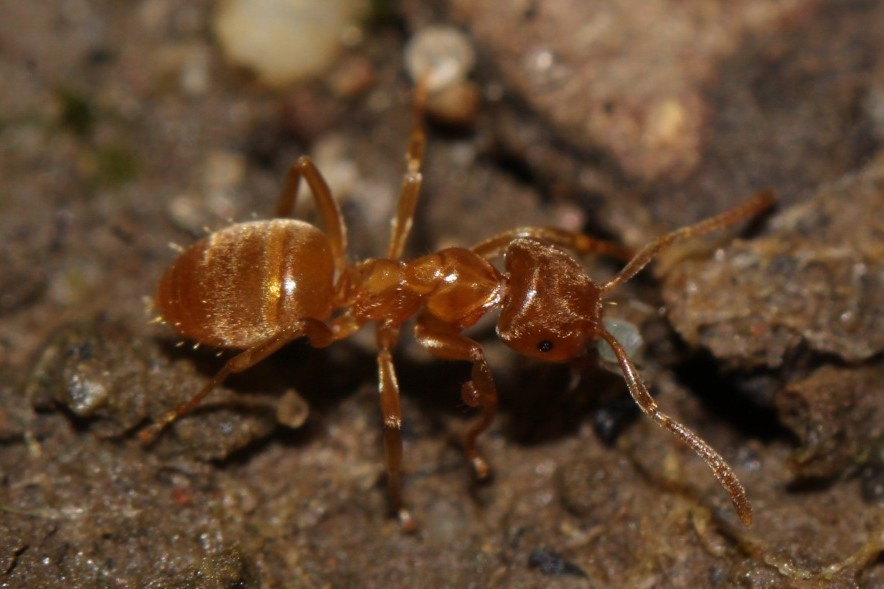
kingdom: Animalia
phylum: Arthropoda
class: Insecta
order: Hymenoptera
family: Formicidae
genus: Lasius
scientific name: Lasius flavus
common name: Blond field ant
